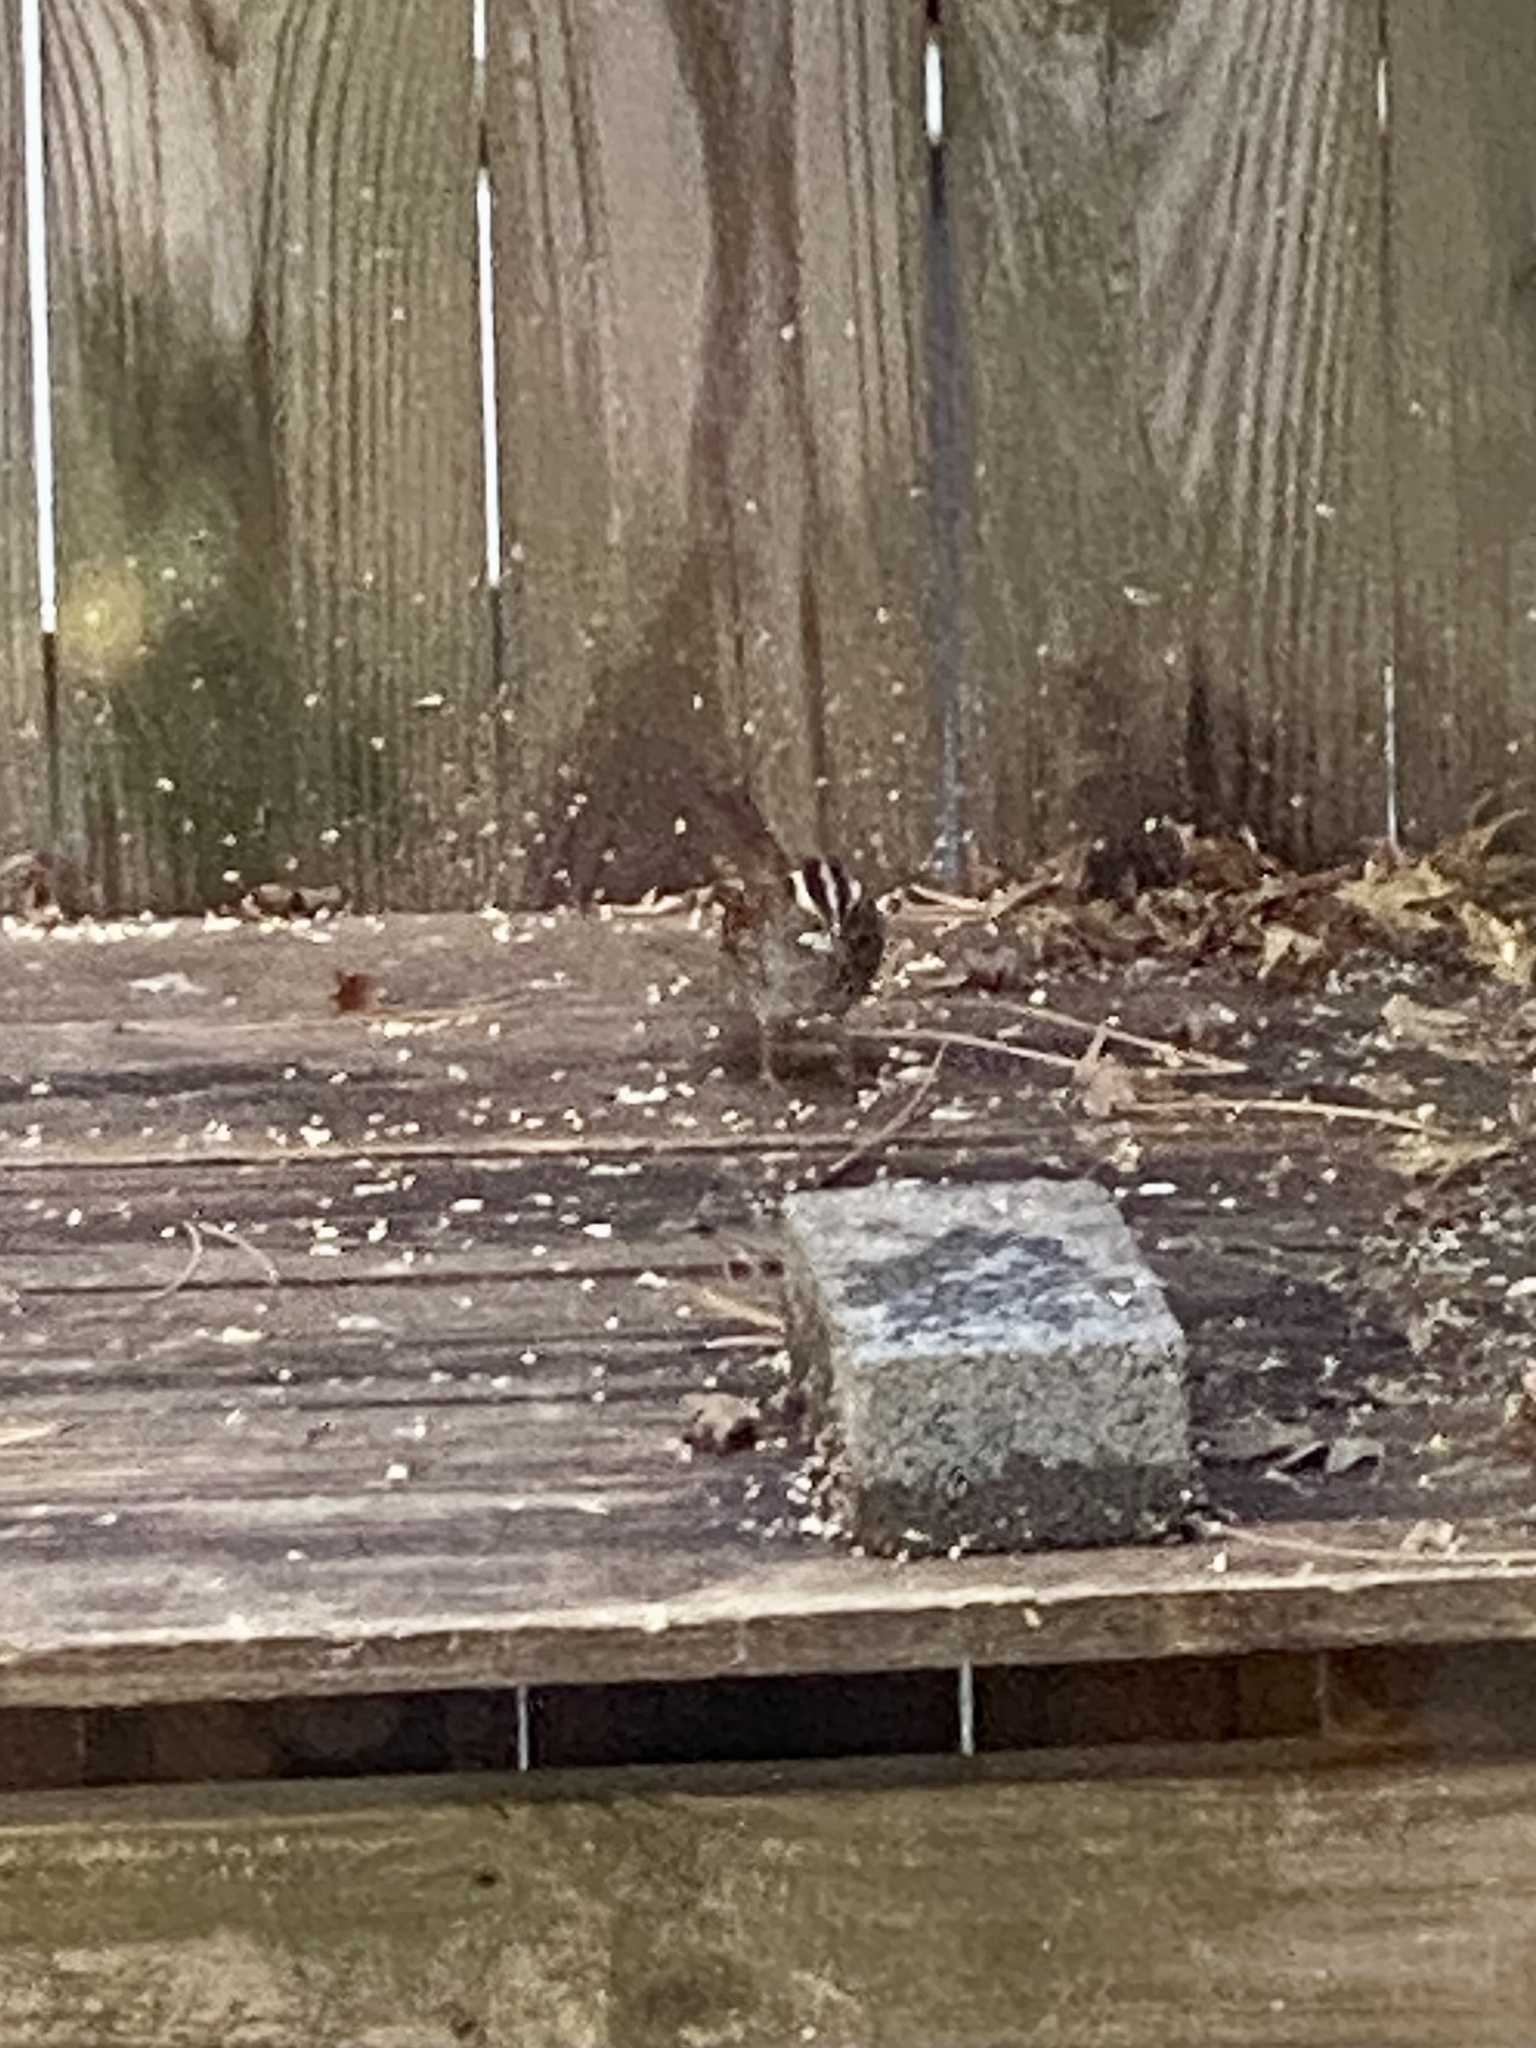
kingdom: Animalia
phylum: Chordata
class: Aves
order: Passeriformes
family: Passerellidae
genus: Zonotrichia
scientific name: Zonotrichia albicollis
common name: White-throated sparrow
